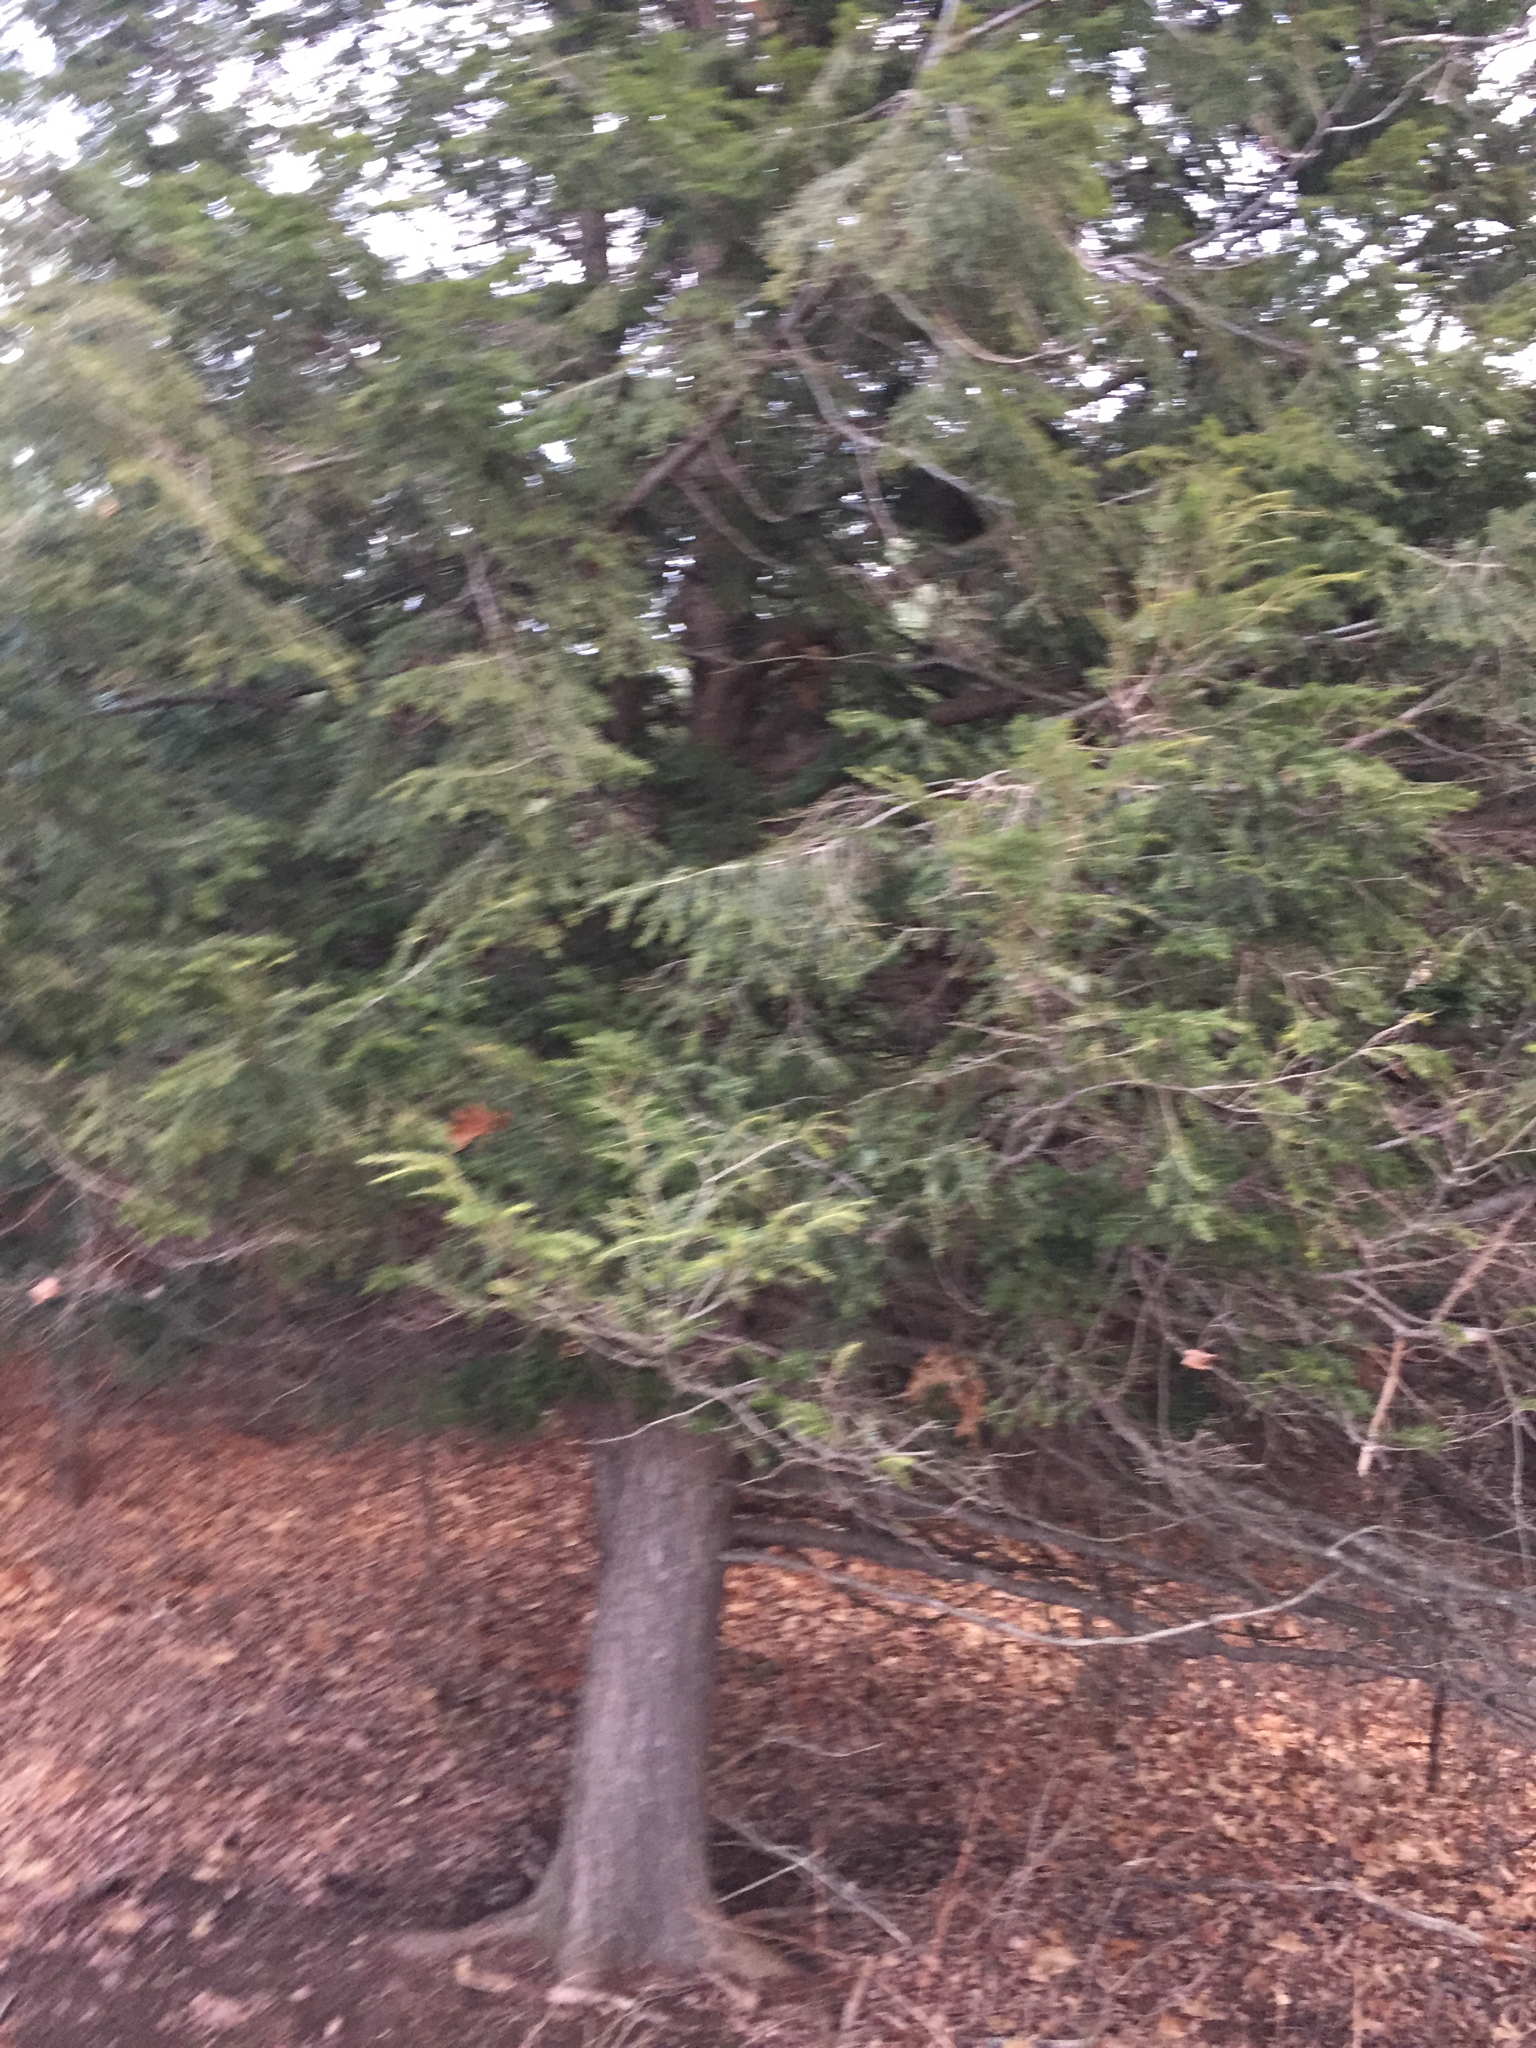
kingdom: Plantae
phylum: Tracheophyta
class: Pinopsida
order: Pinales
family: Pinaceae
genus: Tsuga
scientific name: Tsuga canadensis
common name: Eastern hemlock
